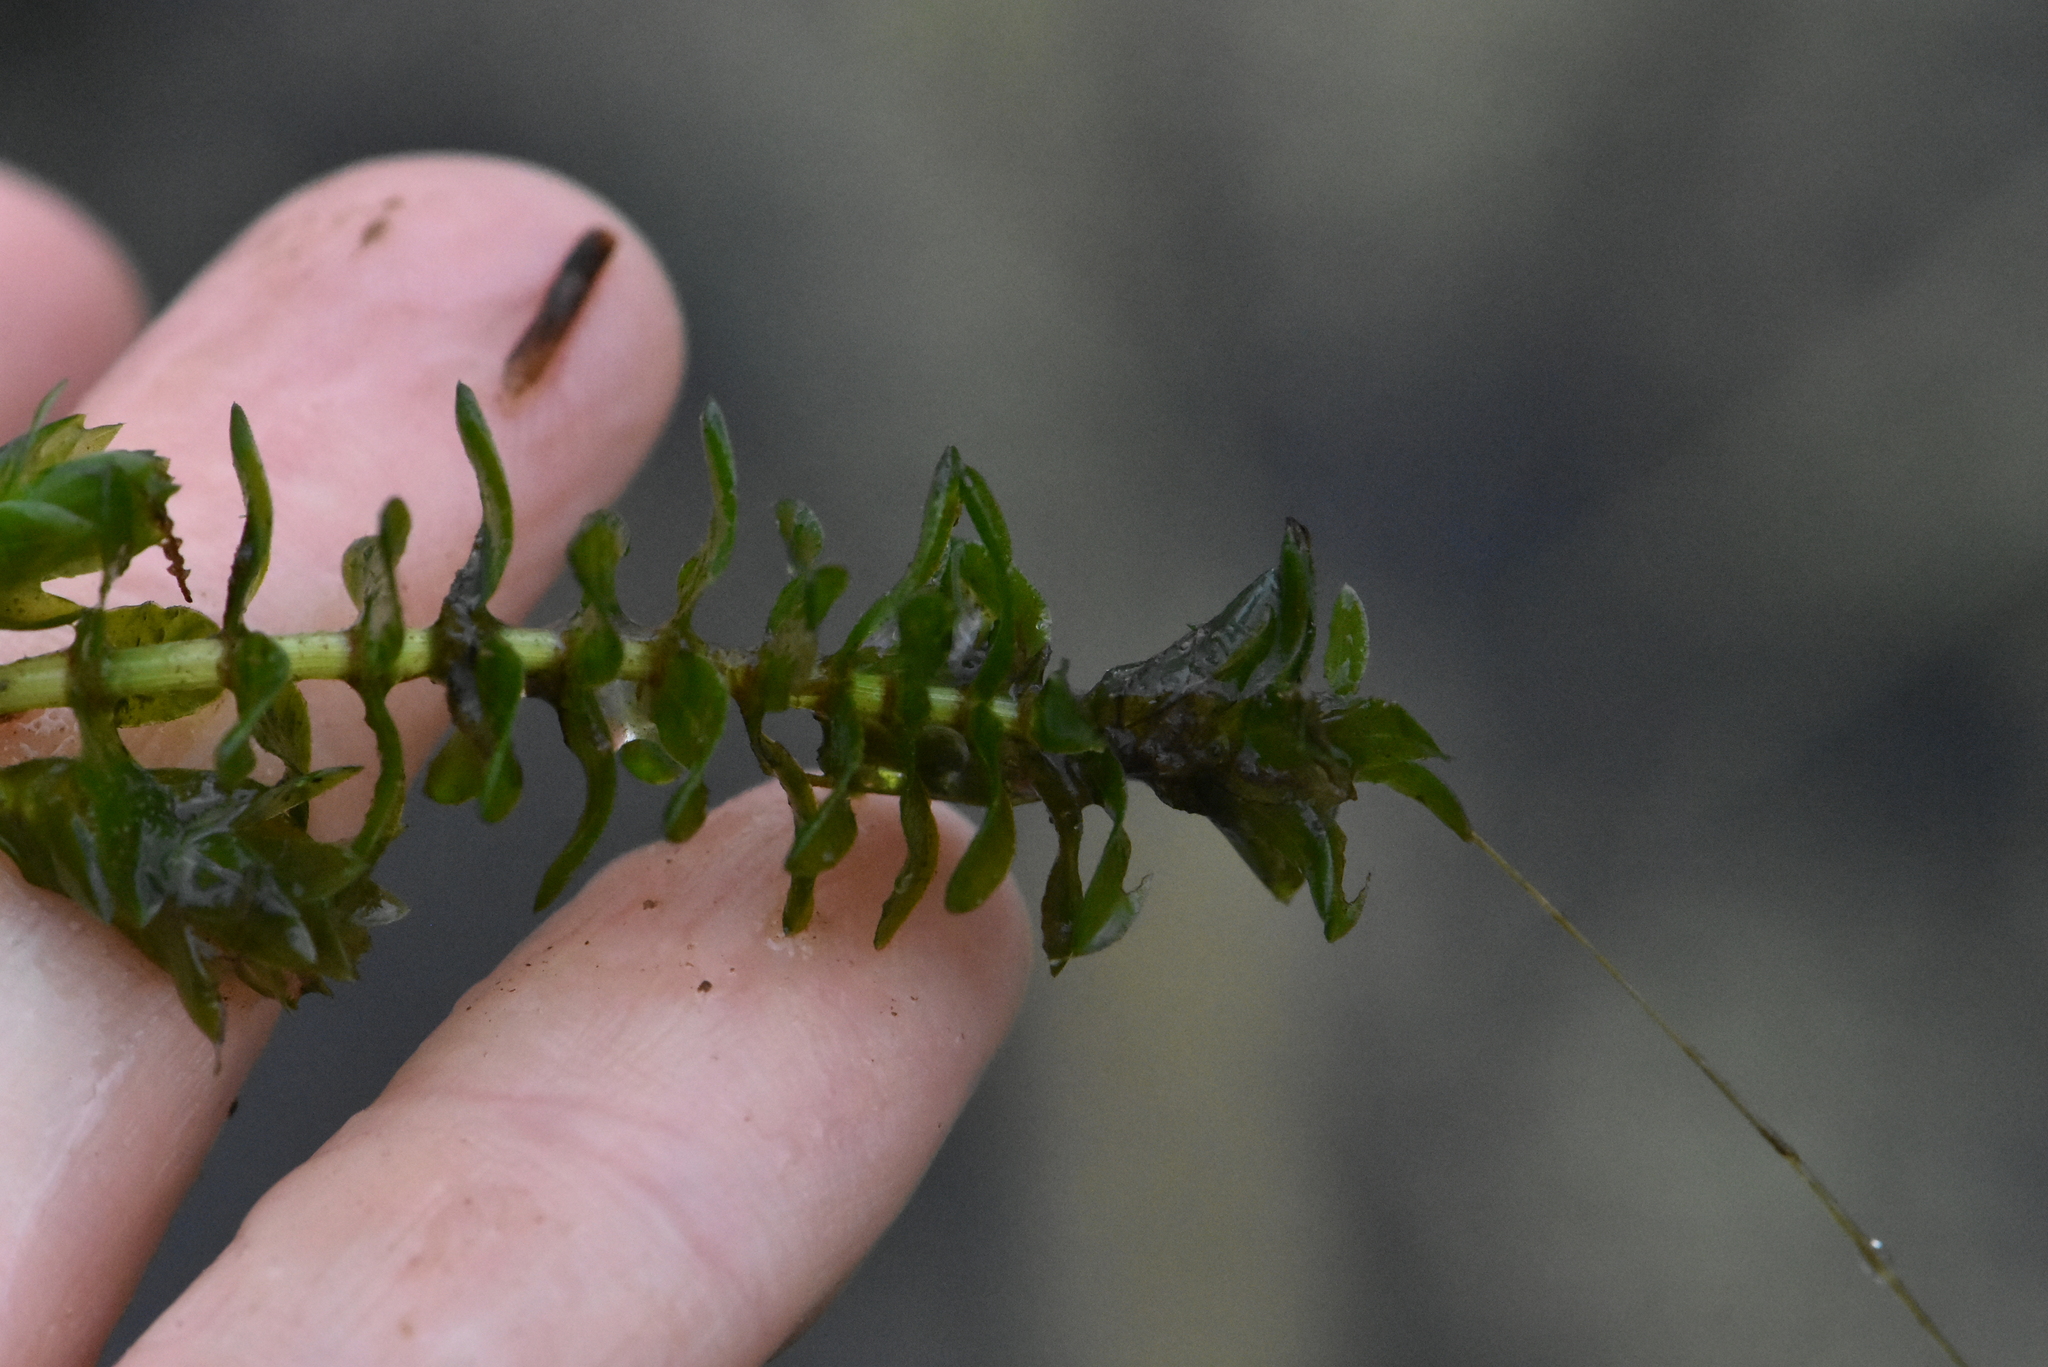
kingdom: Plantae
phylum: Tracheophyta
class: Liliopsida
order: Alismatales
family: Hydrocharitaceae
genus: Elodea
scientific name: Elodea canadensis
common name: Canadian waterweed
